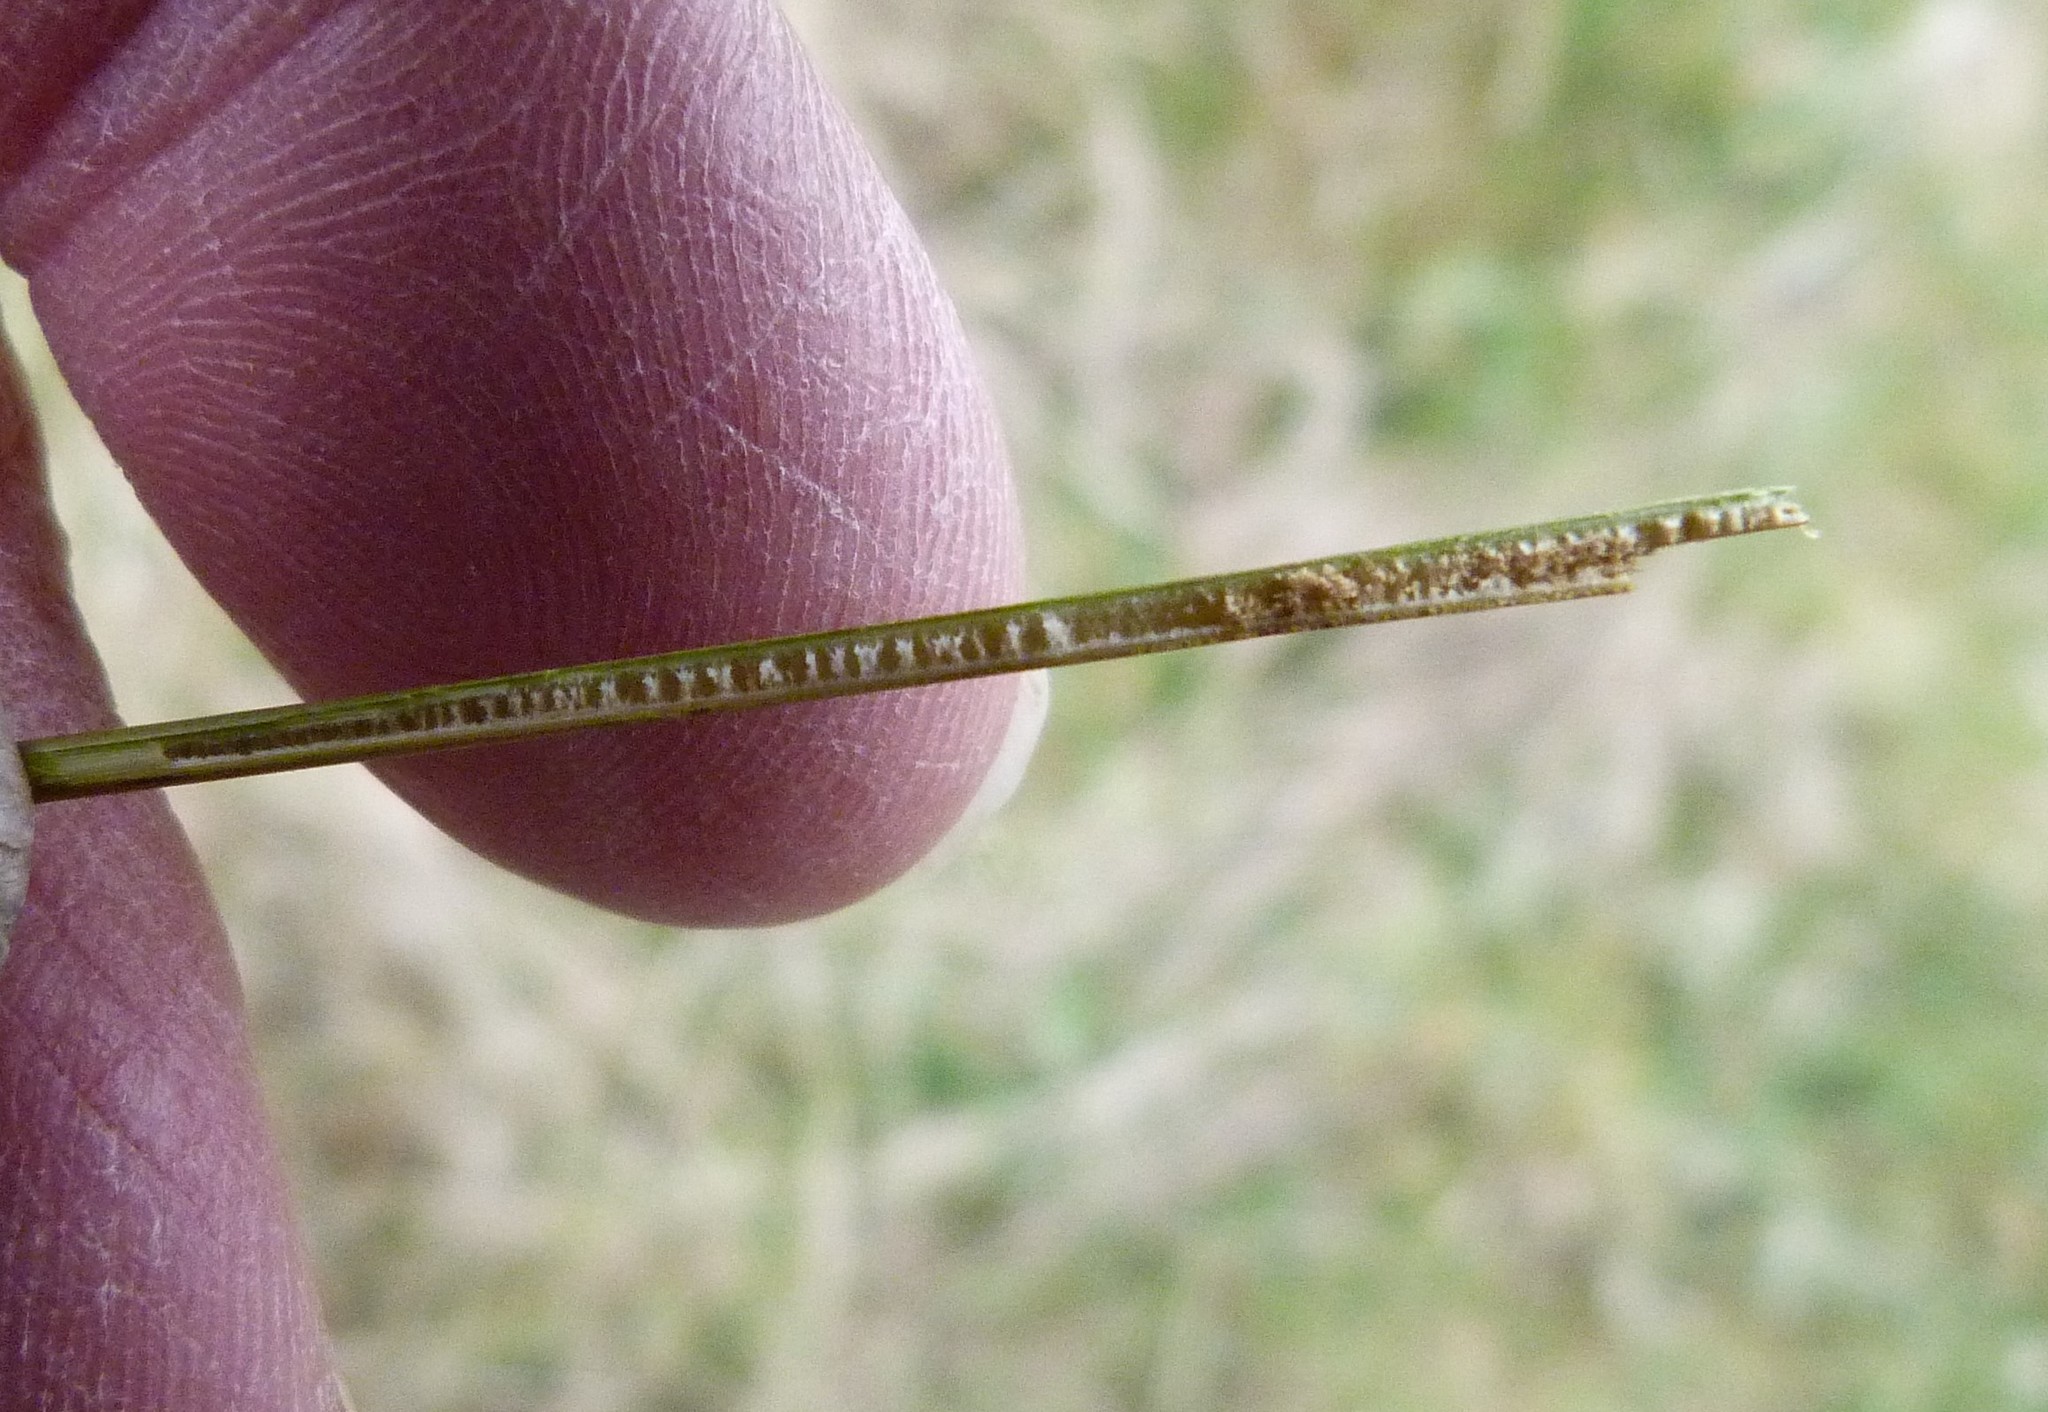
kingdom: Plantae
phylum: Tracheophyta
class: Liliopsida
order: Poales
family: Juncaceae
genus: Juncus
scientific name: Juncus distegus
